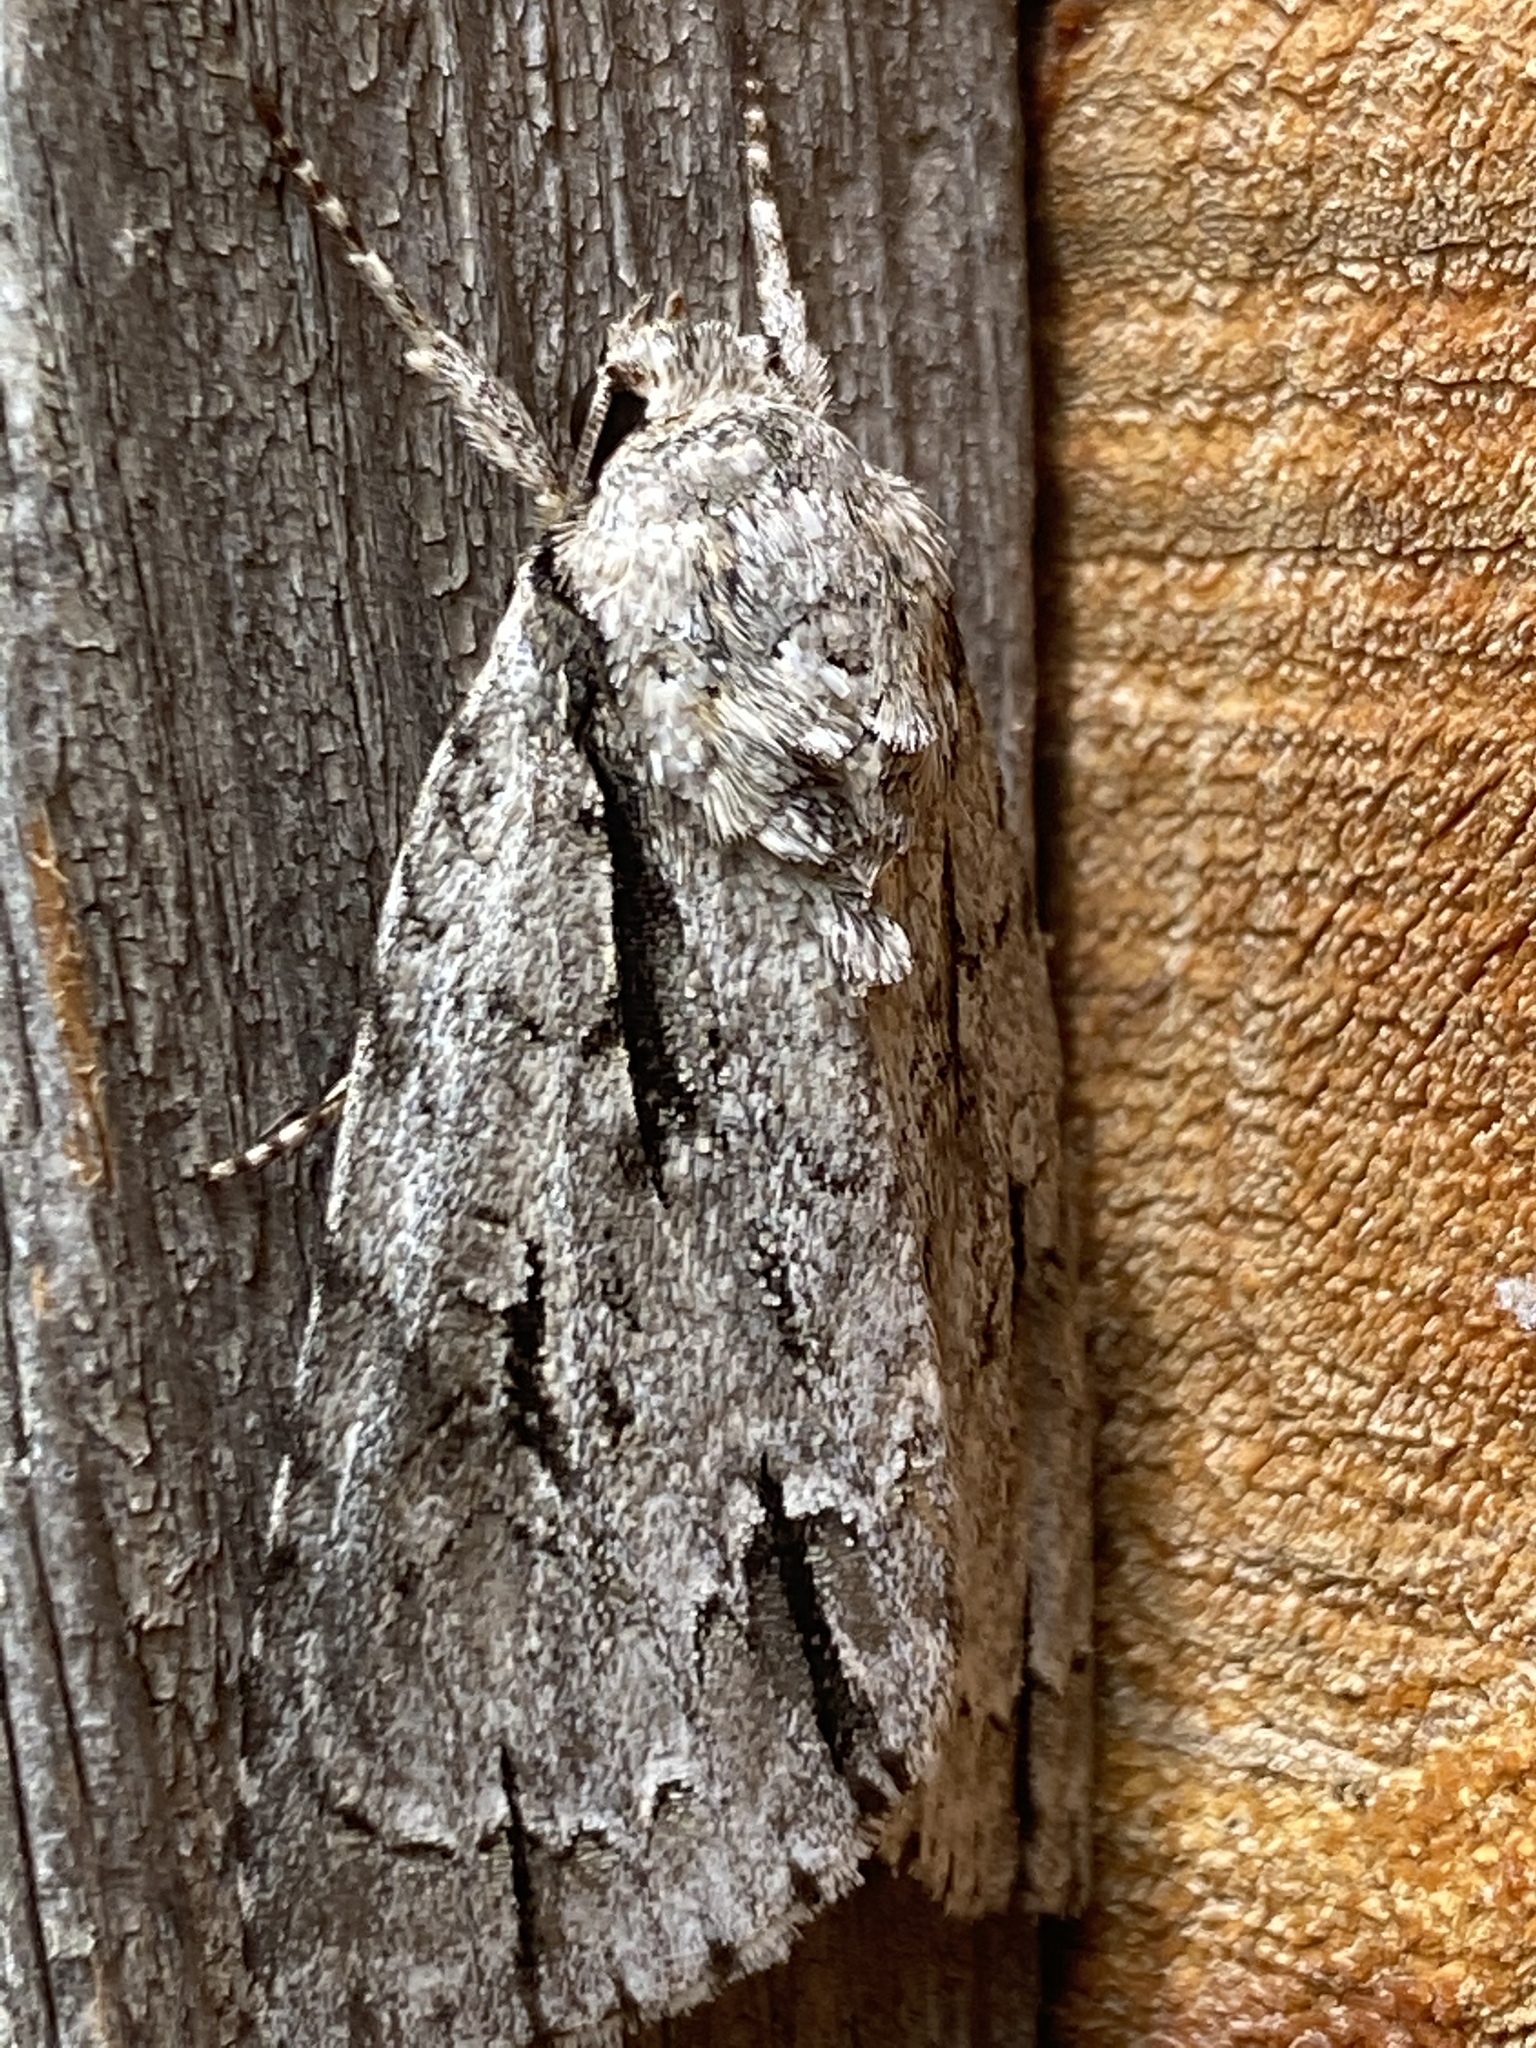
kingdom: Animalia
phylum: Arthropoda
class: Insecta
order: Lepidoptera
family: Noctuidae
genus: Acronicta
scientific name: Acronicta lobeliae
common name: Greater oak dagger
